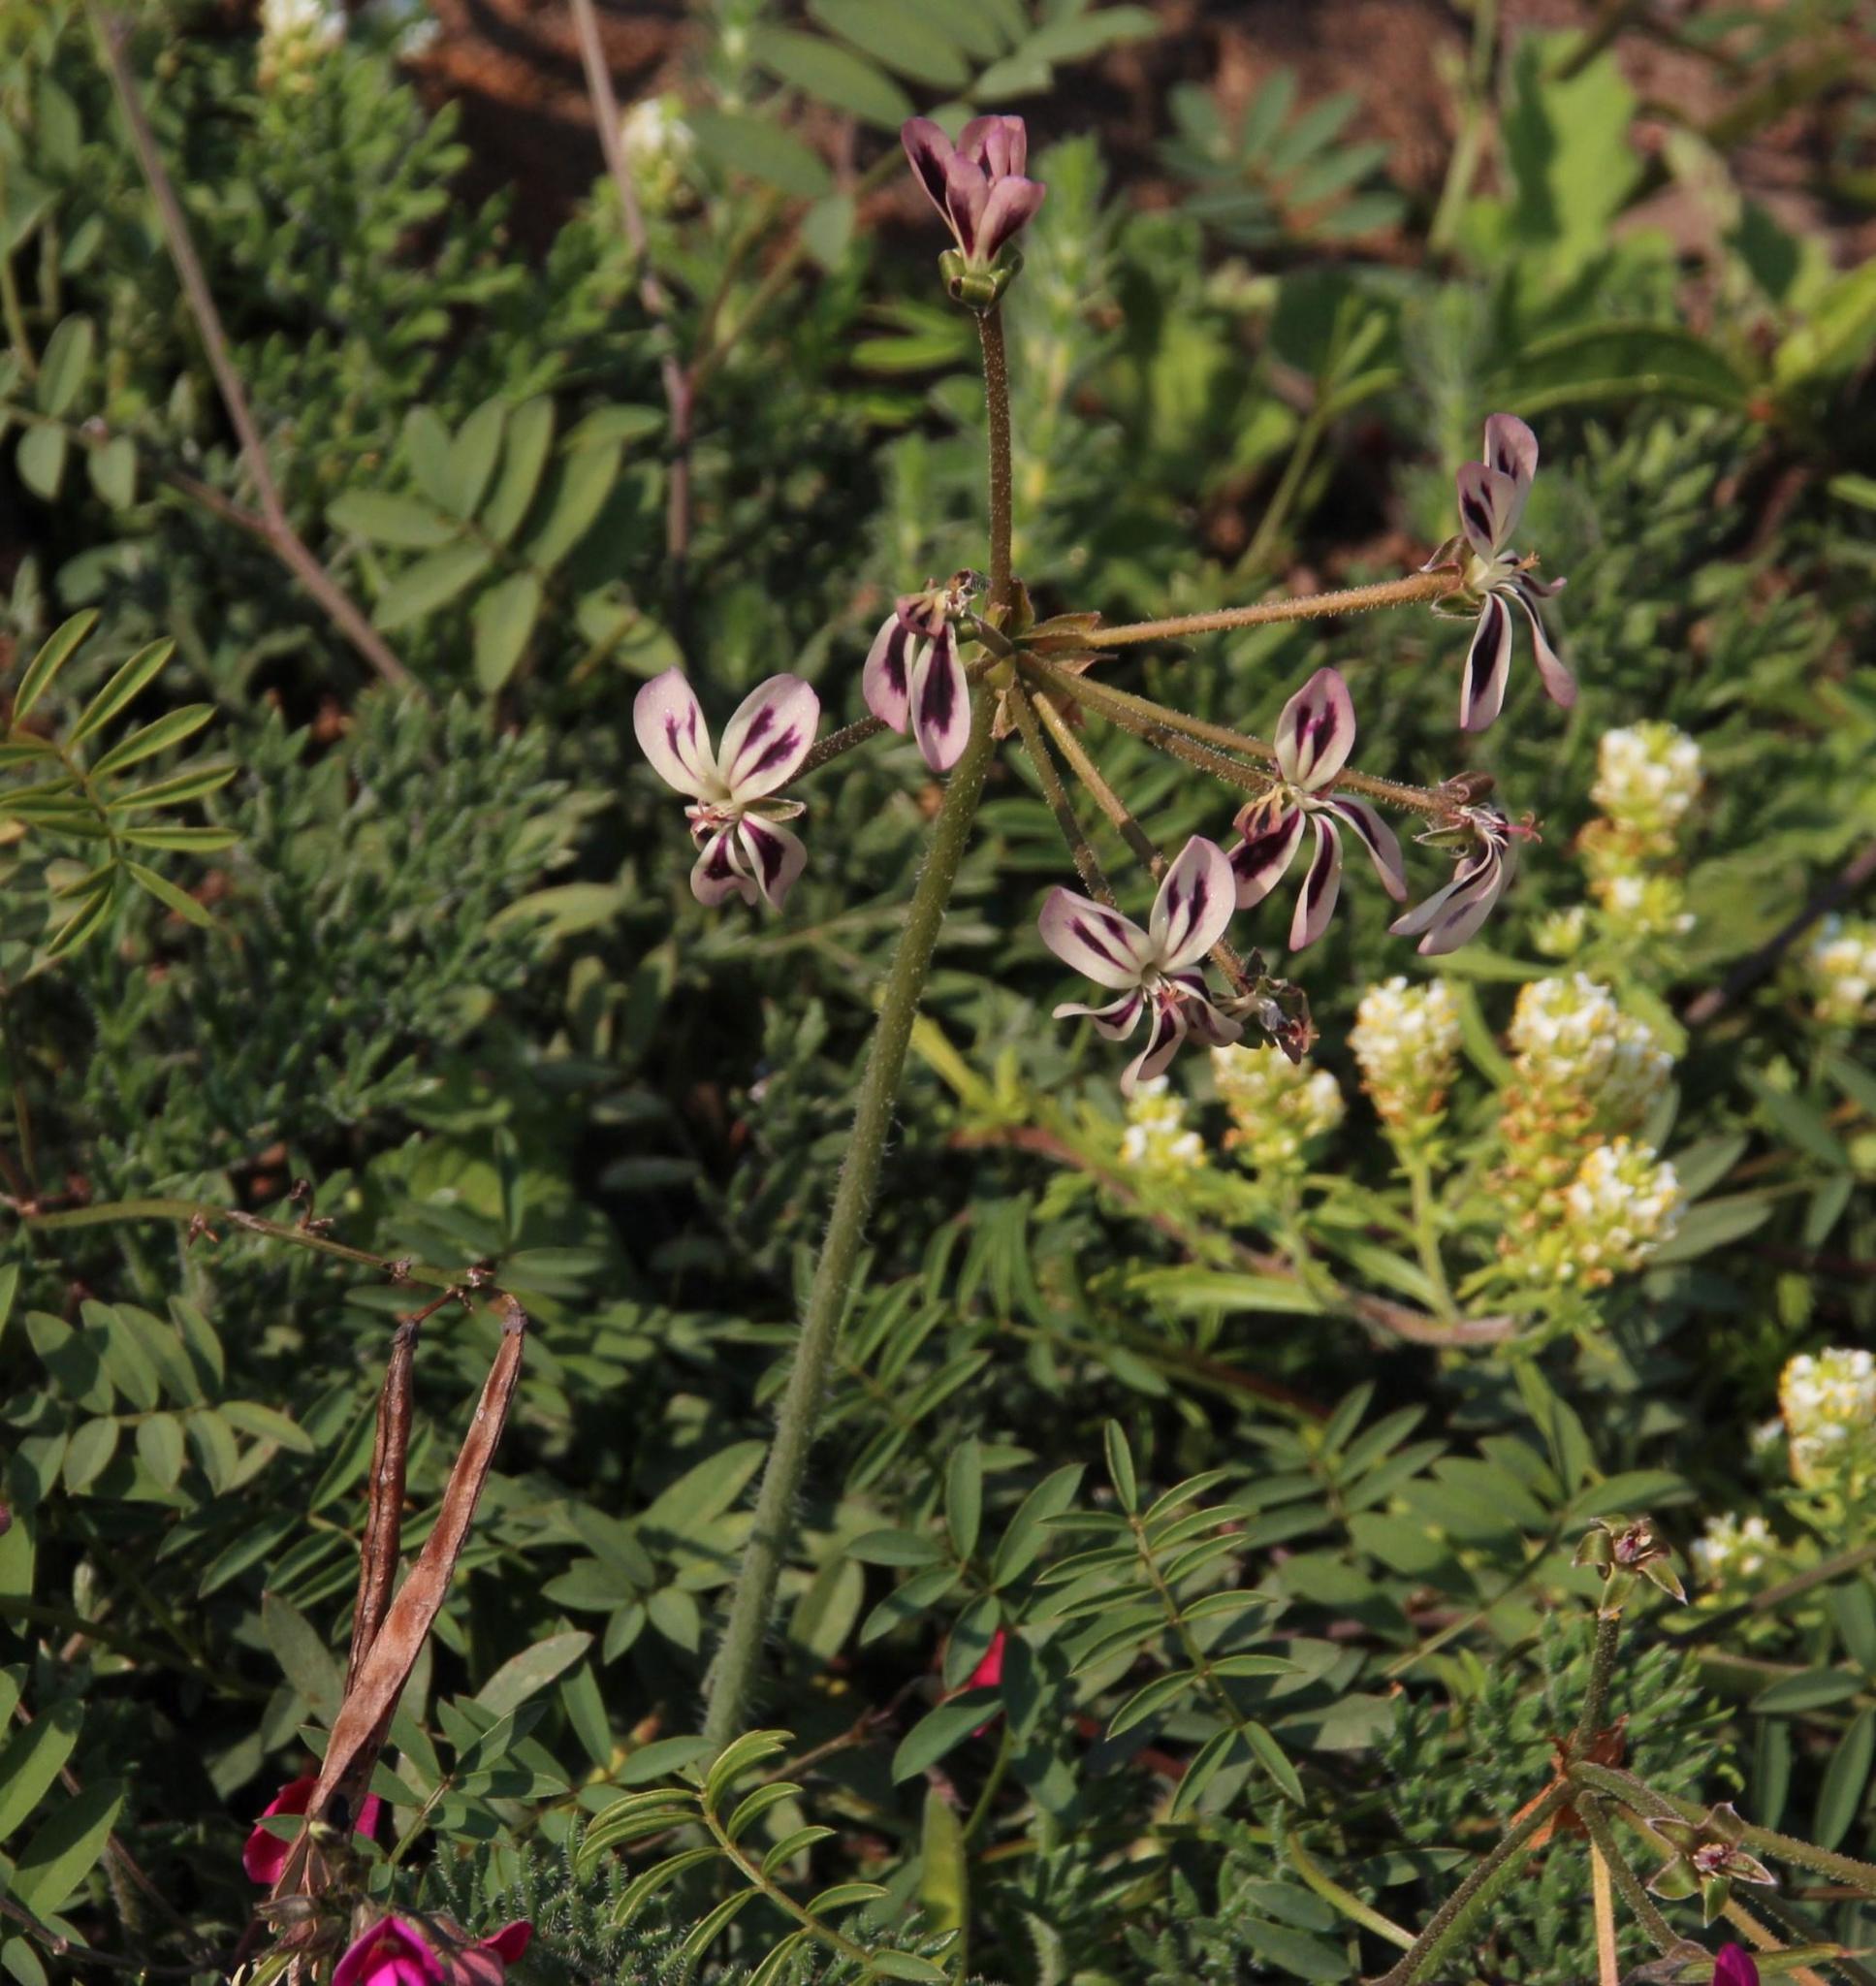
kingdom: Plantae
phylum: Tracheophyta
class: Magnoliopsida
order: Geraniales
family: Geraniaceae
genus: Pelargonium
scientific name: Pelargonium triste
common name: Night-scent pelargonium
